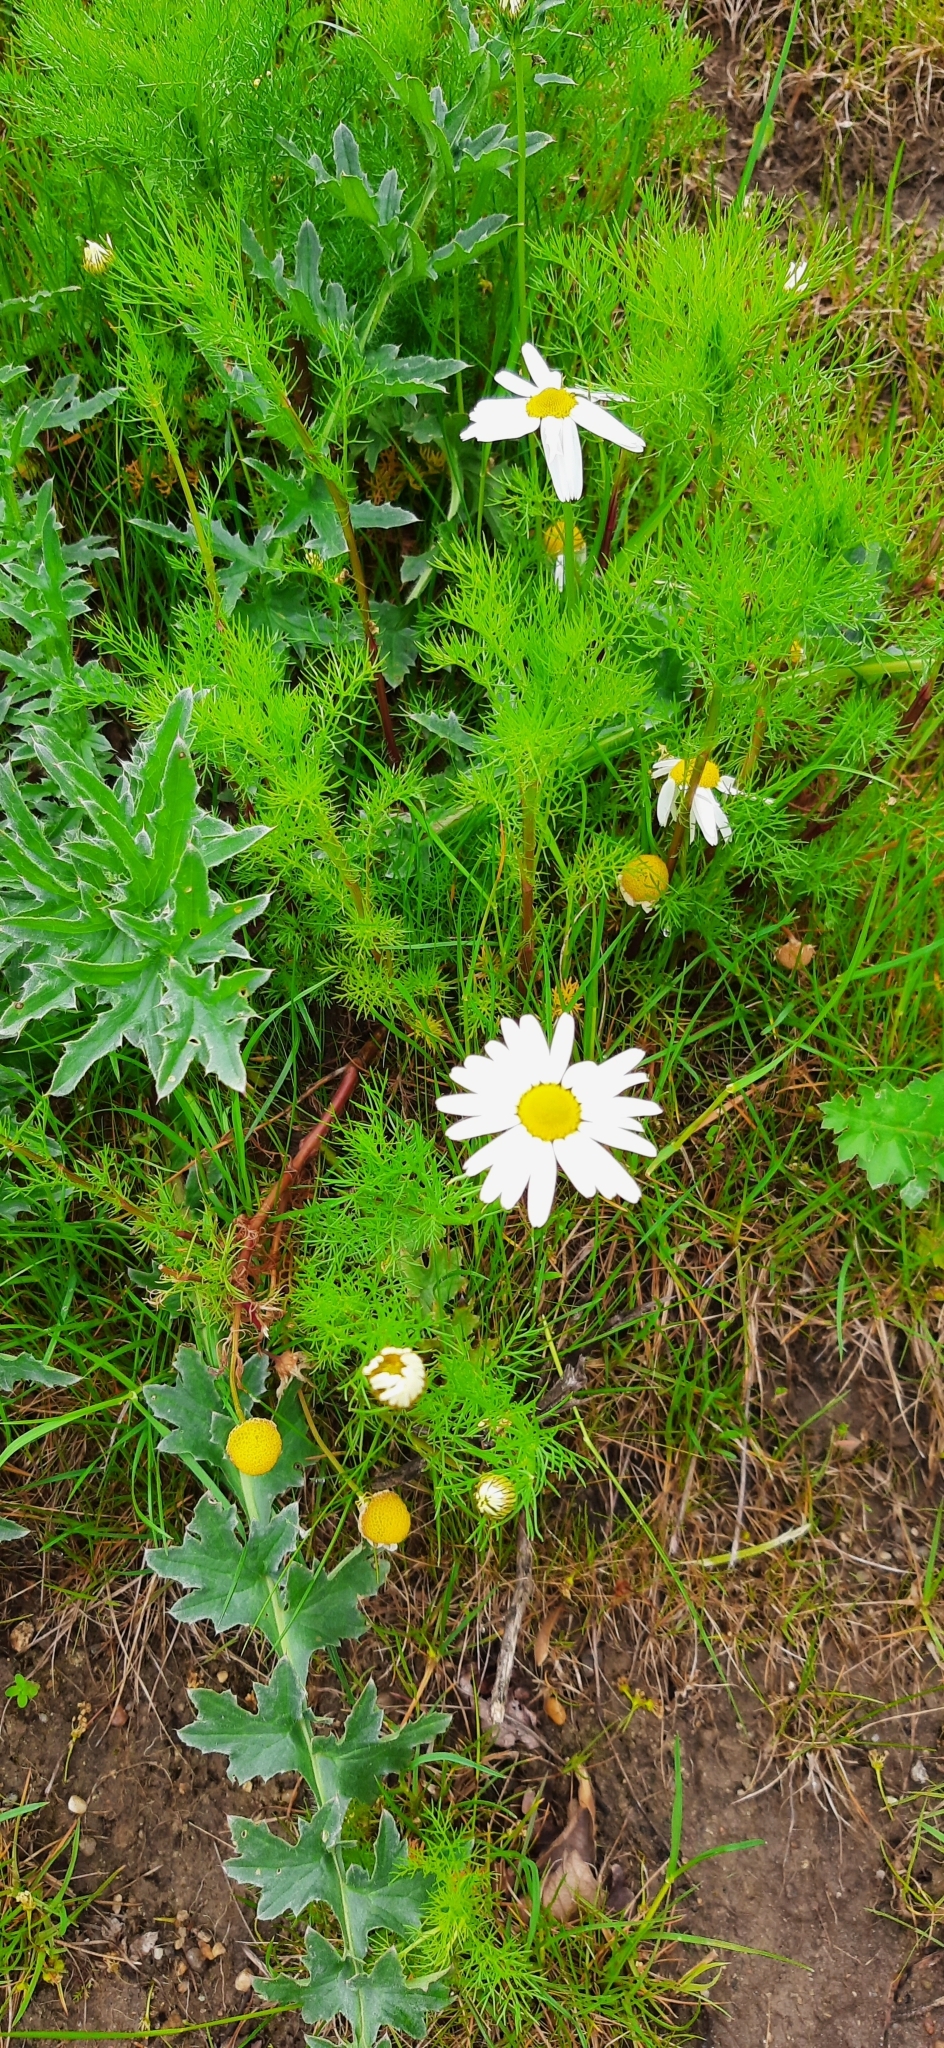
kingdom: Plantae
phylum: Tracheophyta
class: Magnoliopsida
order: Asterales
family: Asteraceae
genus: Tripleurospermum
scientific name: Tripleurospermum inodorum
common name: Scentless mayweed
